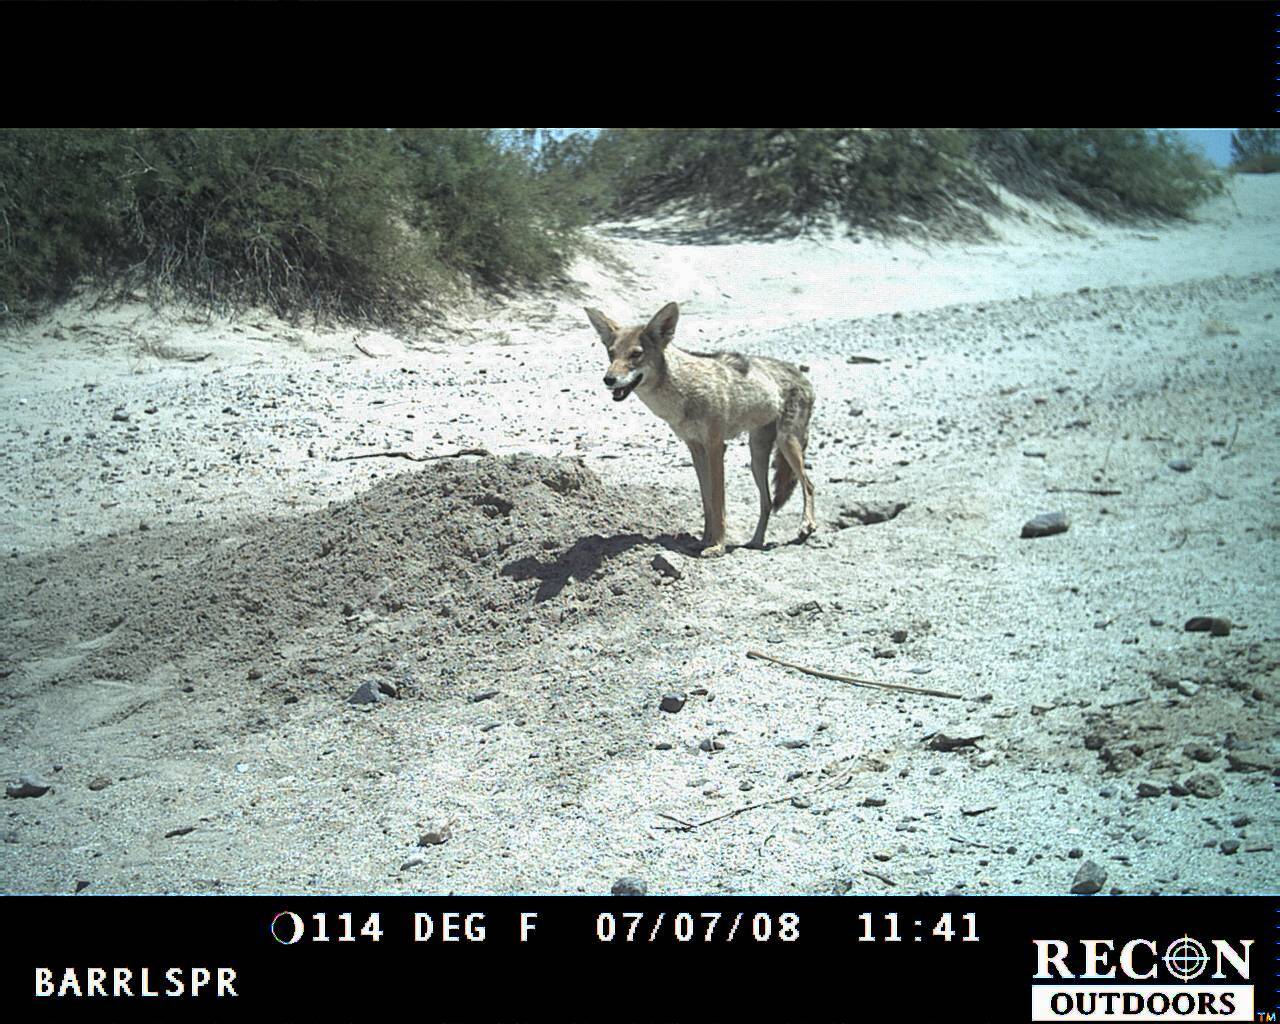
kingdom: Animalia
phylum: Chordata
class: Mammalia
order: Carnivora
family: Canidae
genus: Canis
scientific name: Canis latrans
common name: Coyote
